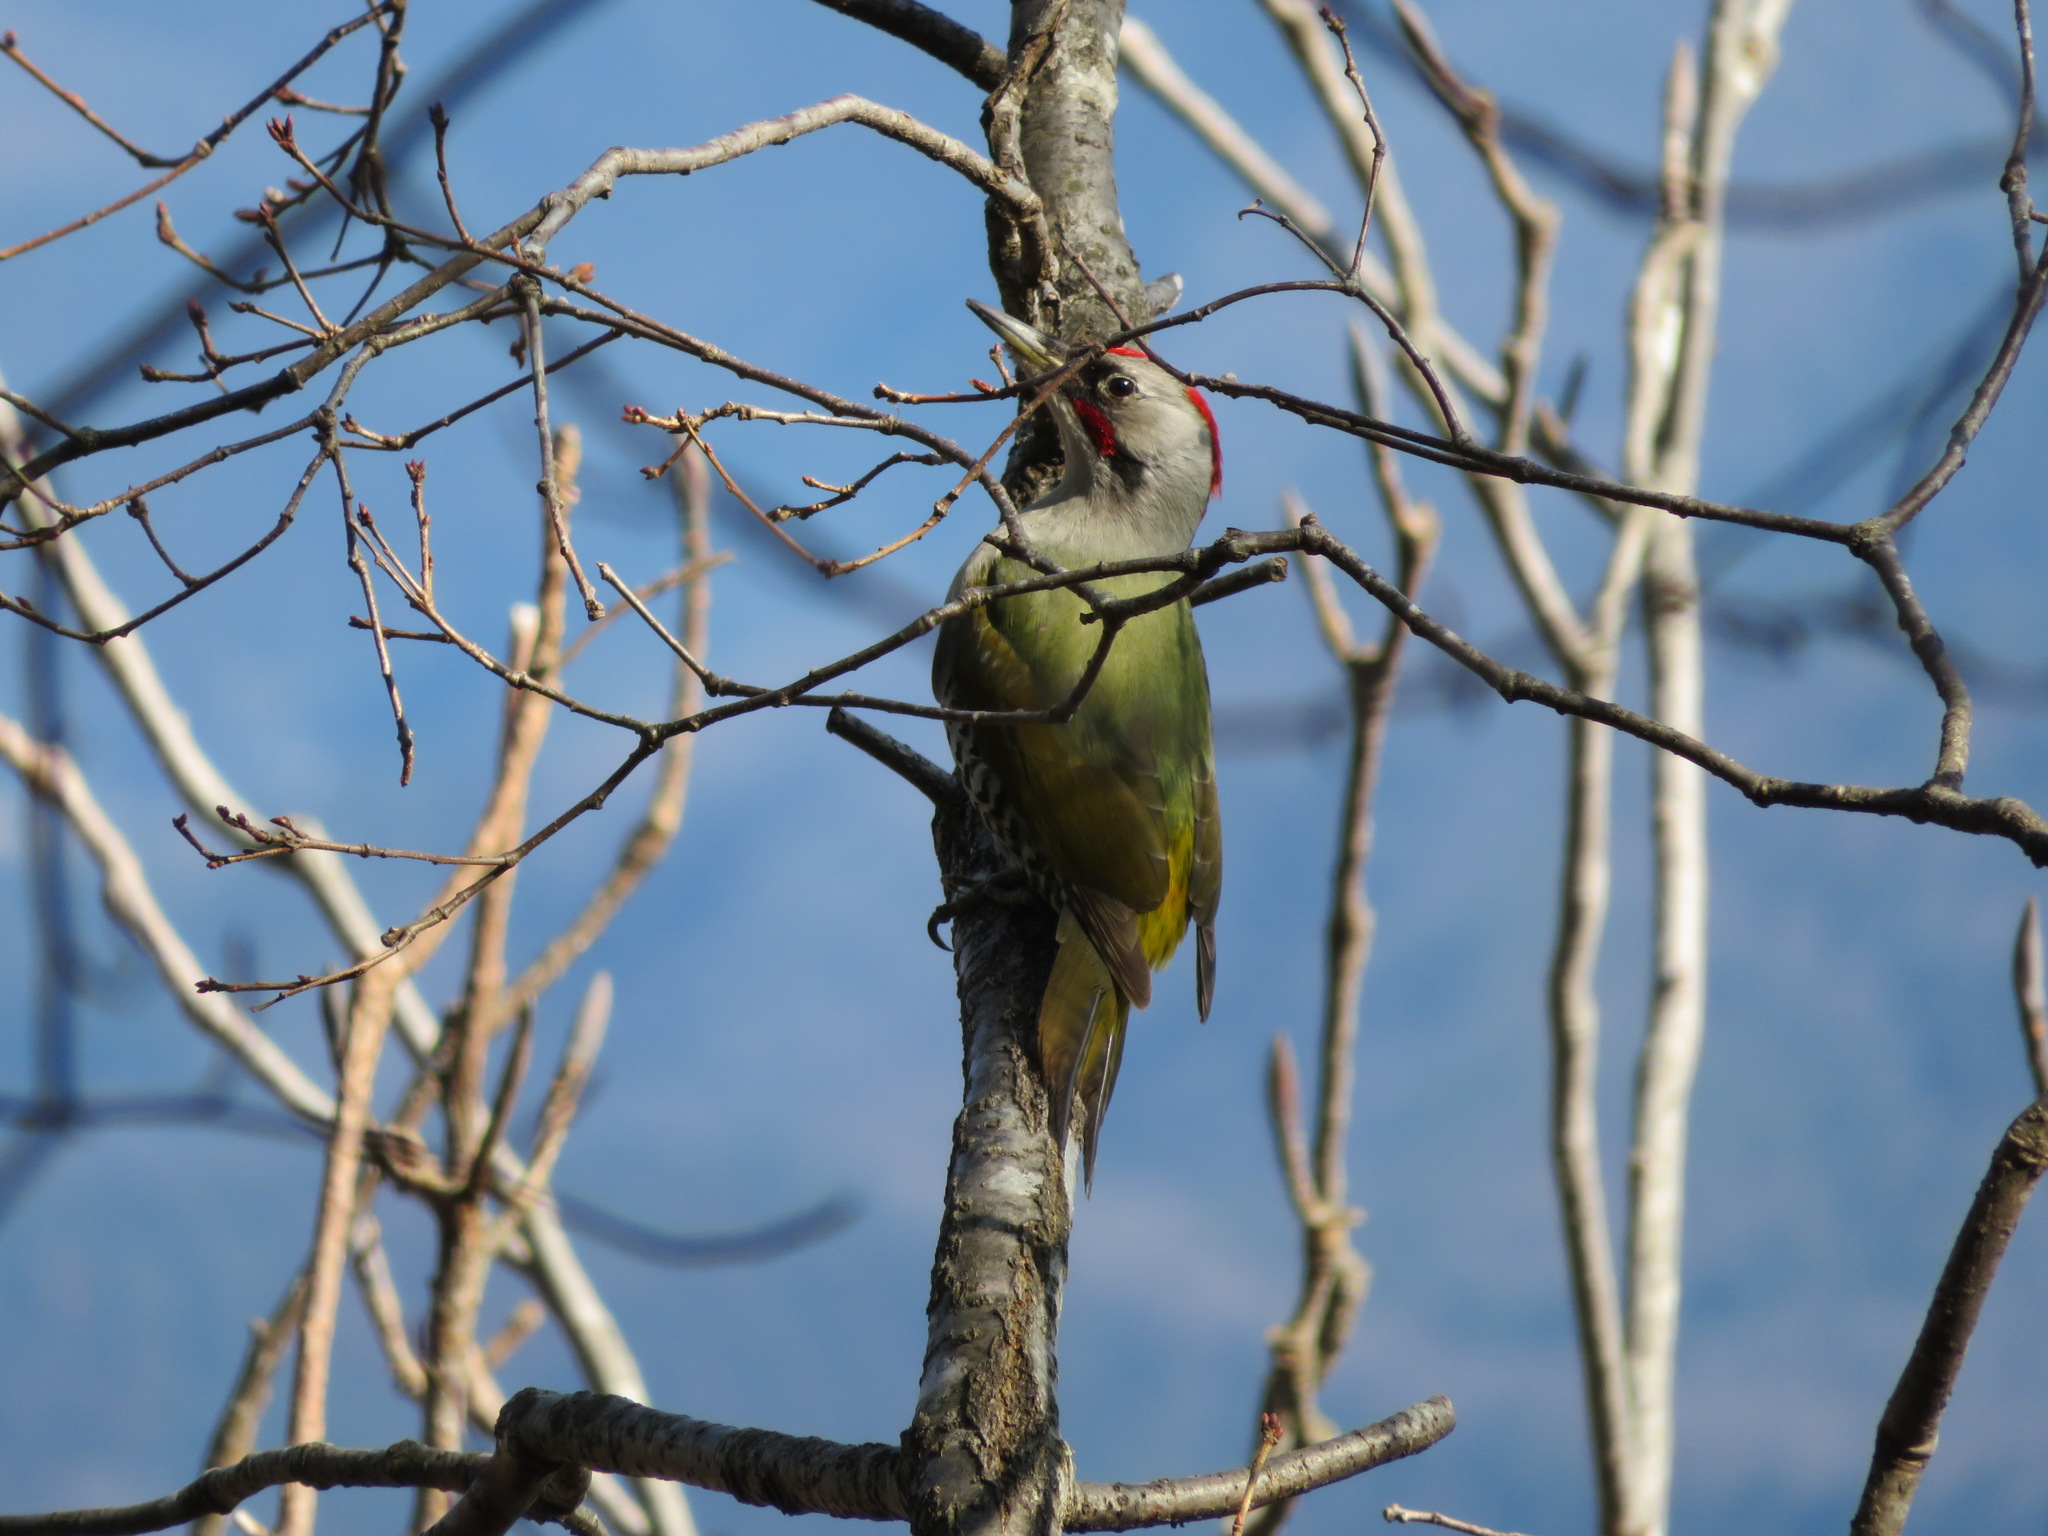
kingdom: Animalia
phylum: Chordata
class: Aves
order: Piciformes
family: Picidae
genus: Picus
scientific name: Picus awokera
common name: Japanese green woodpecker
